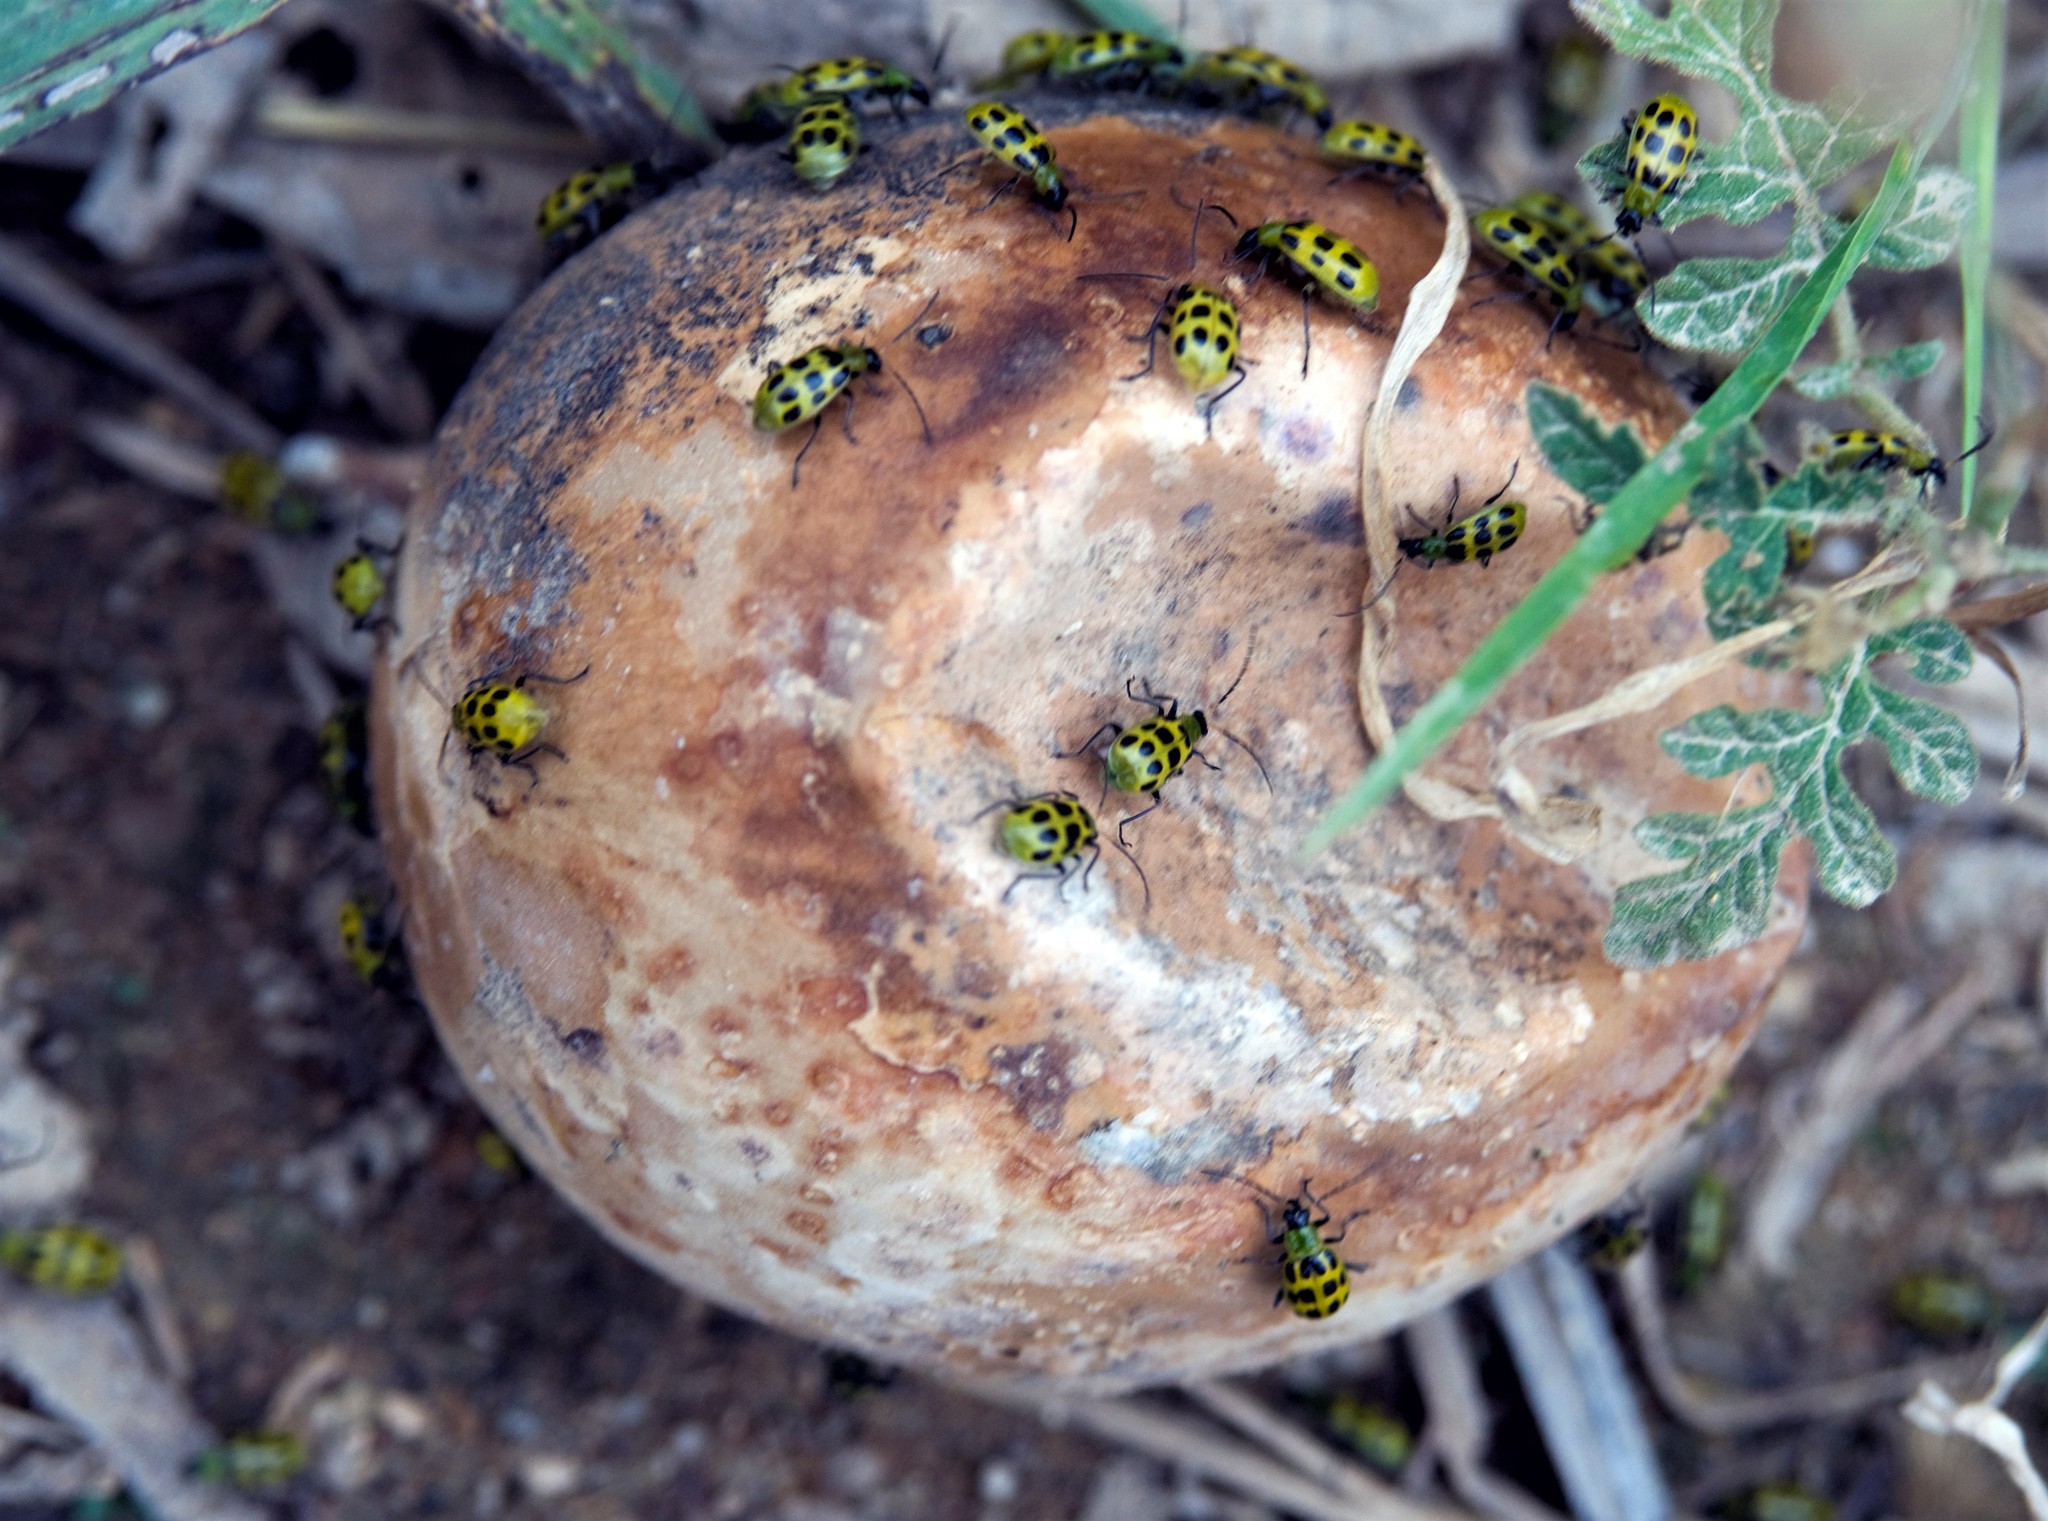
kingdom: Animalia
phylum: Arthropoda
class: Insecta
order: Coleoptera
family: Chrysomelidae
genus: Diabrotica
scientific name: Diabrotica undecimpunctata
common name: Spotted cucumber beetle
